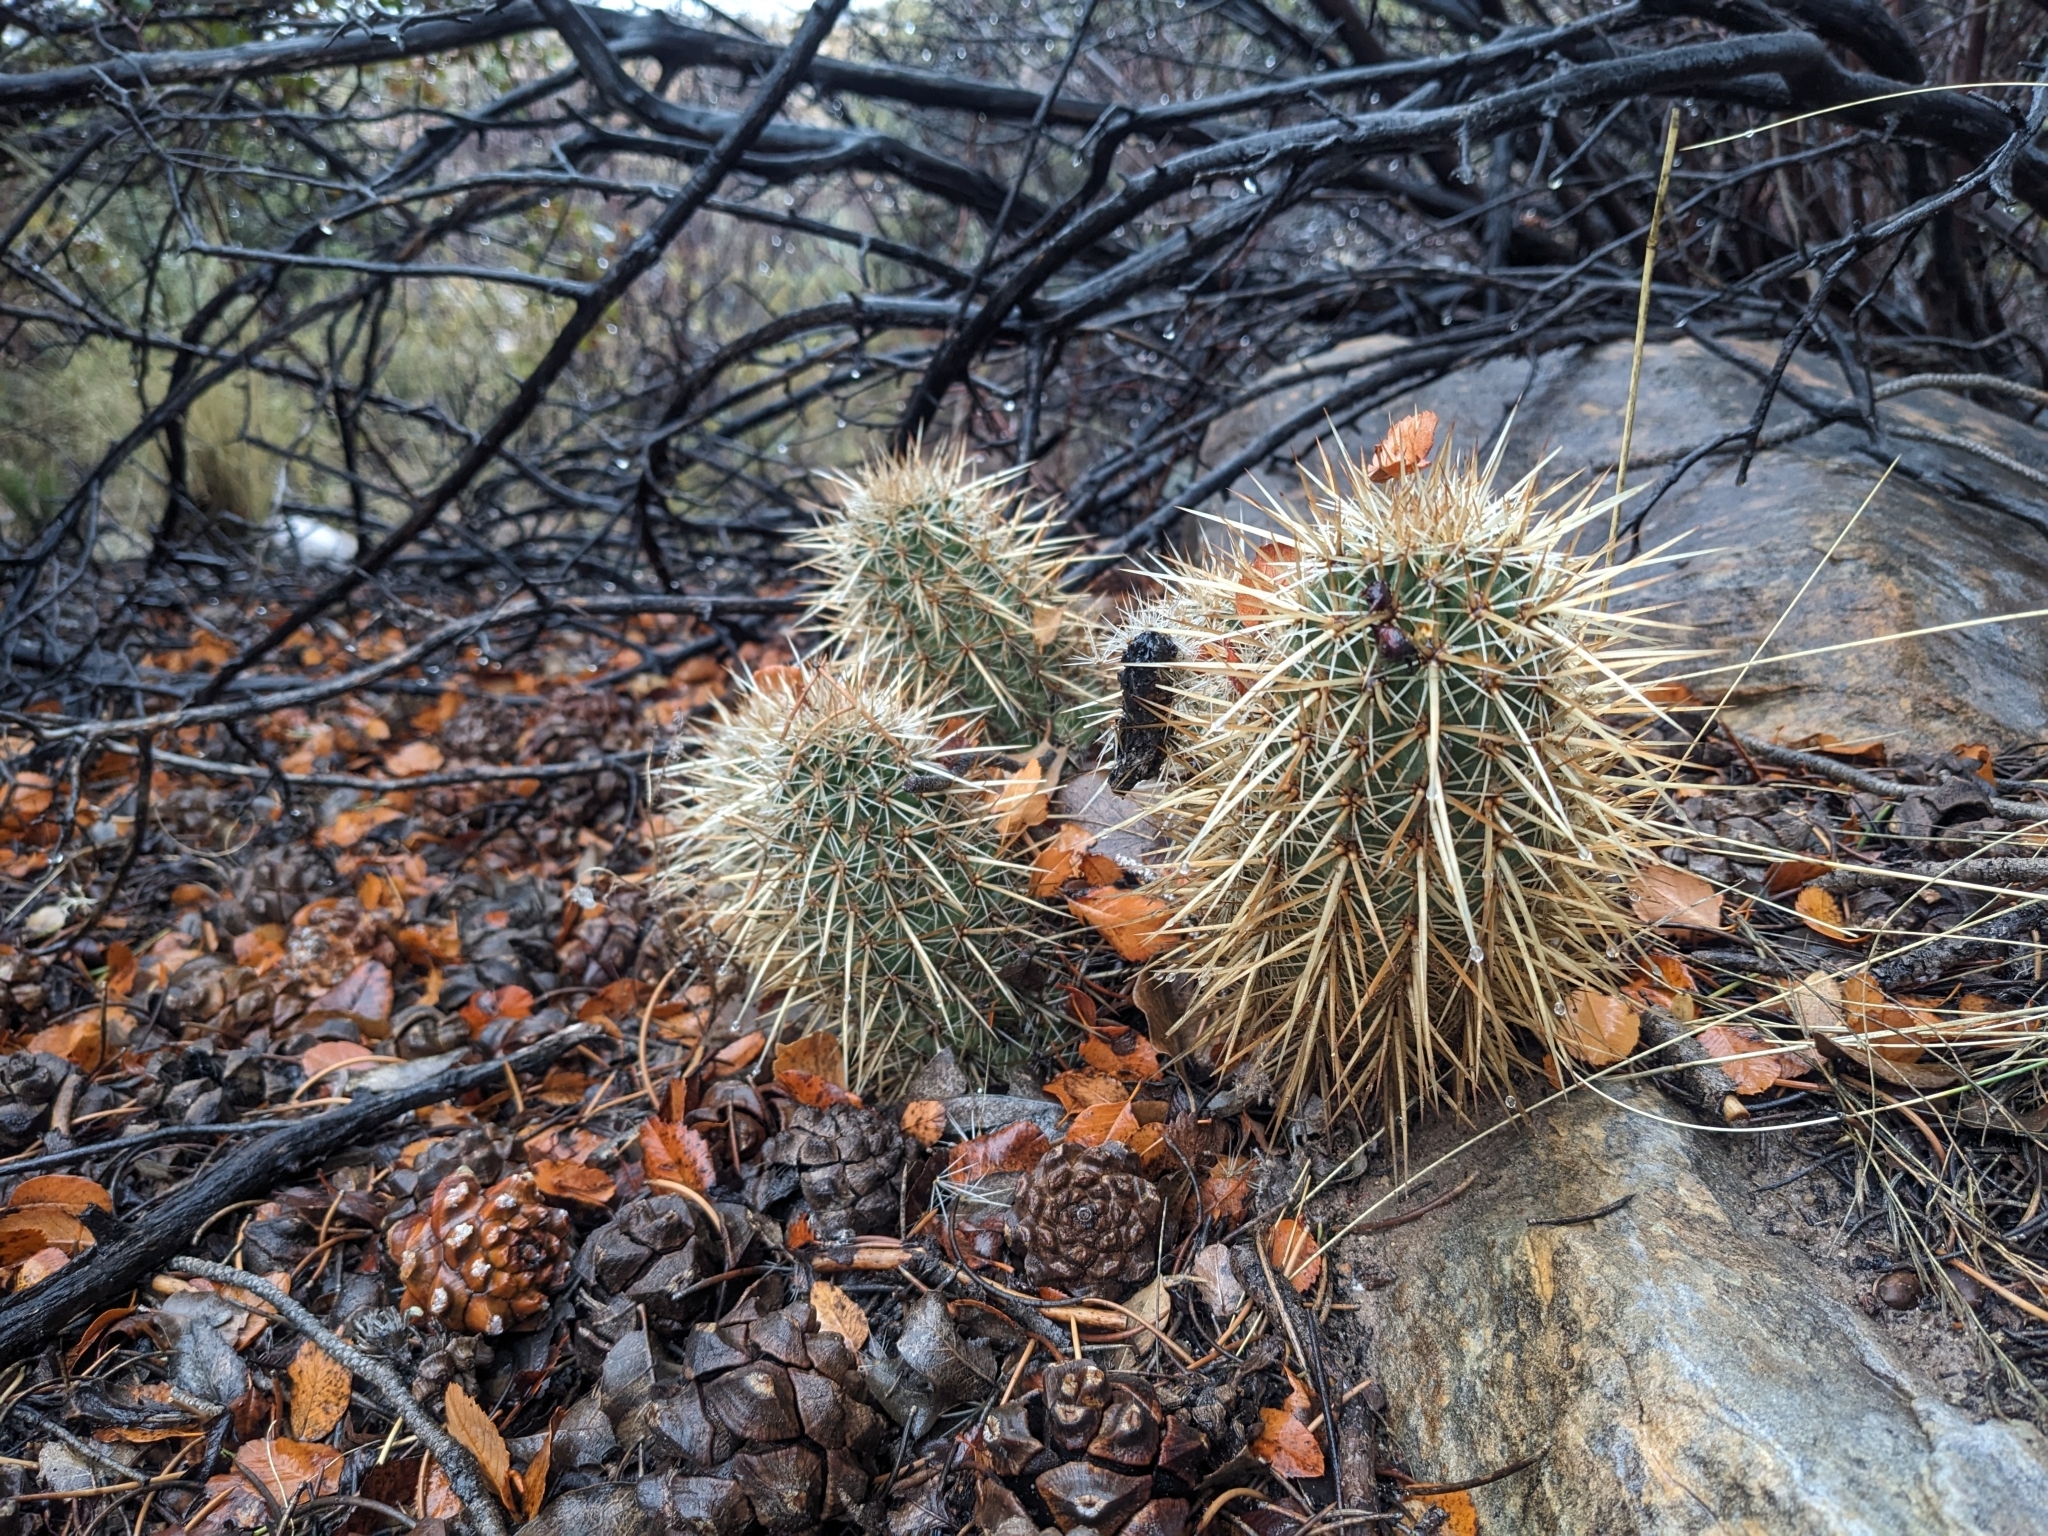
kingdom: Plantae
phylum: Tracheophyta
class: Magnoliopsida
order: Caryophyllales
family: Cactaceae
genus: Echinocereus
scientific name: Echinocereus engelmannii
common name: Engelmann's hedgehog cactus
